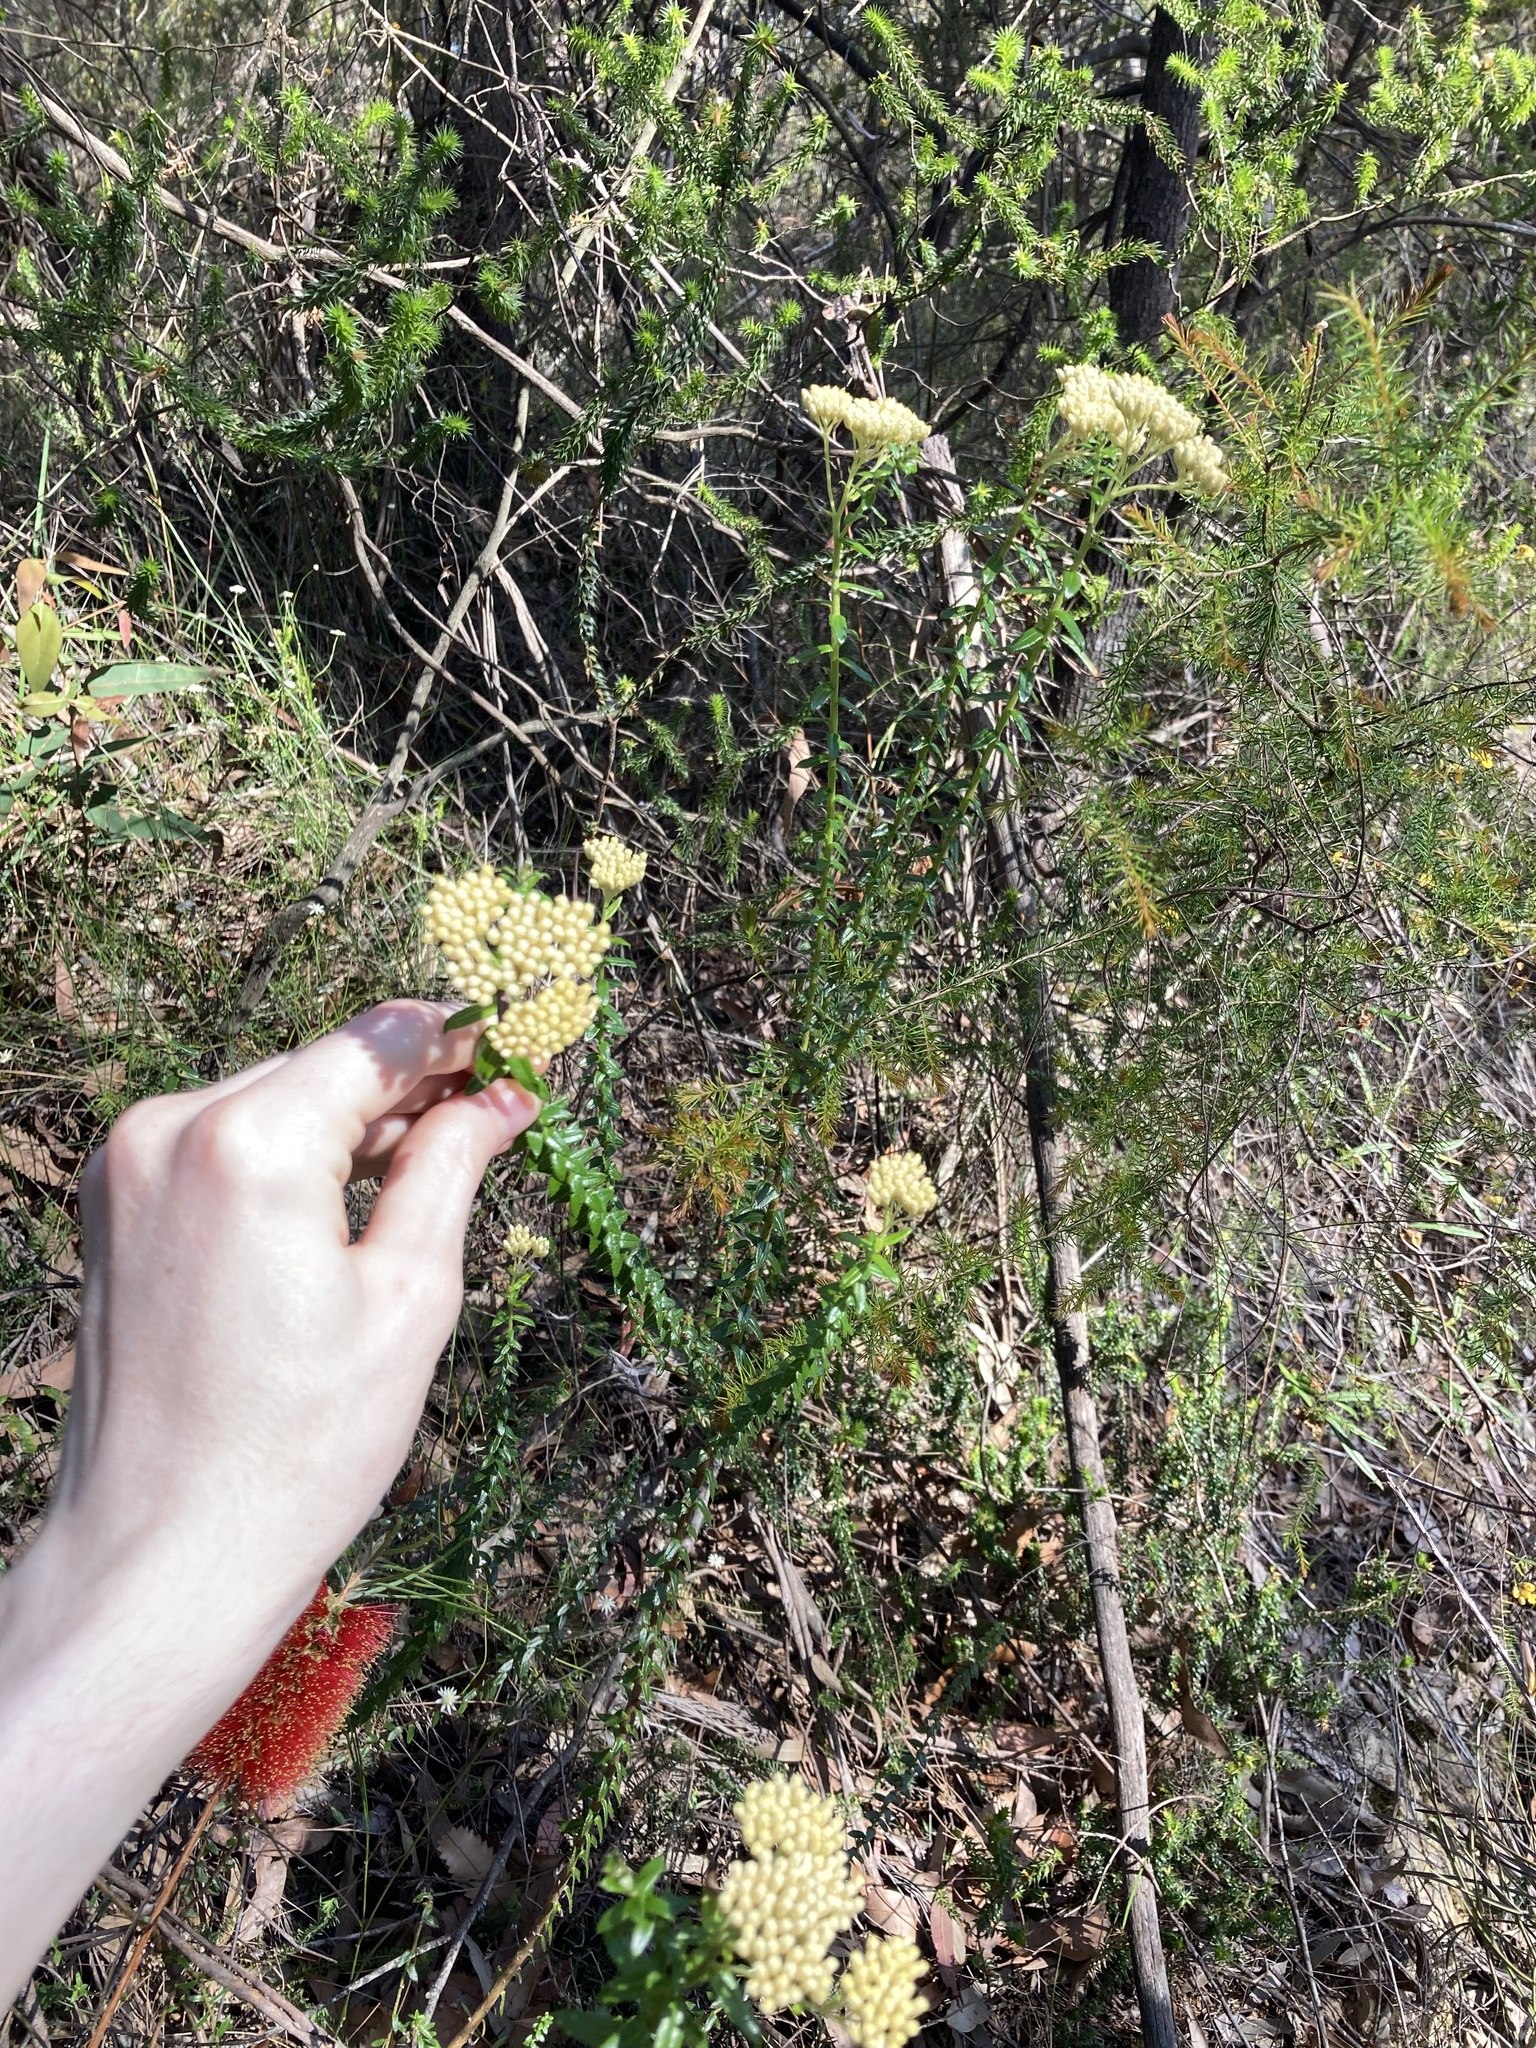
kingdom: Plantae
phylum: Tracheophyta
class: Magnoliopsida
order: Asterales
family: Asteraceae
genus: Cassinia
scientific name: Cassinia denticulata
